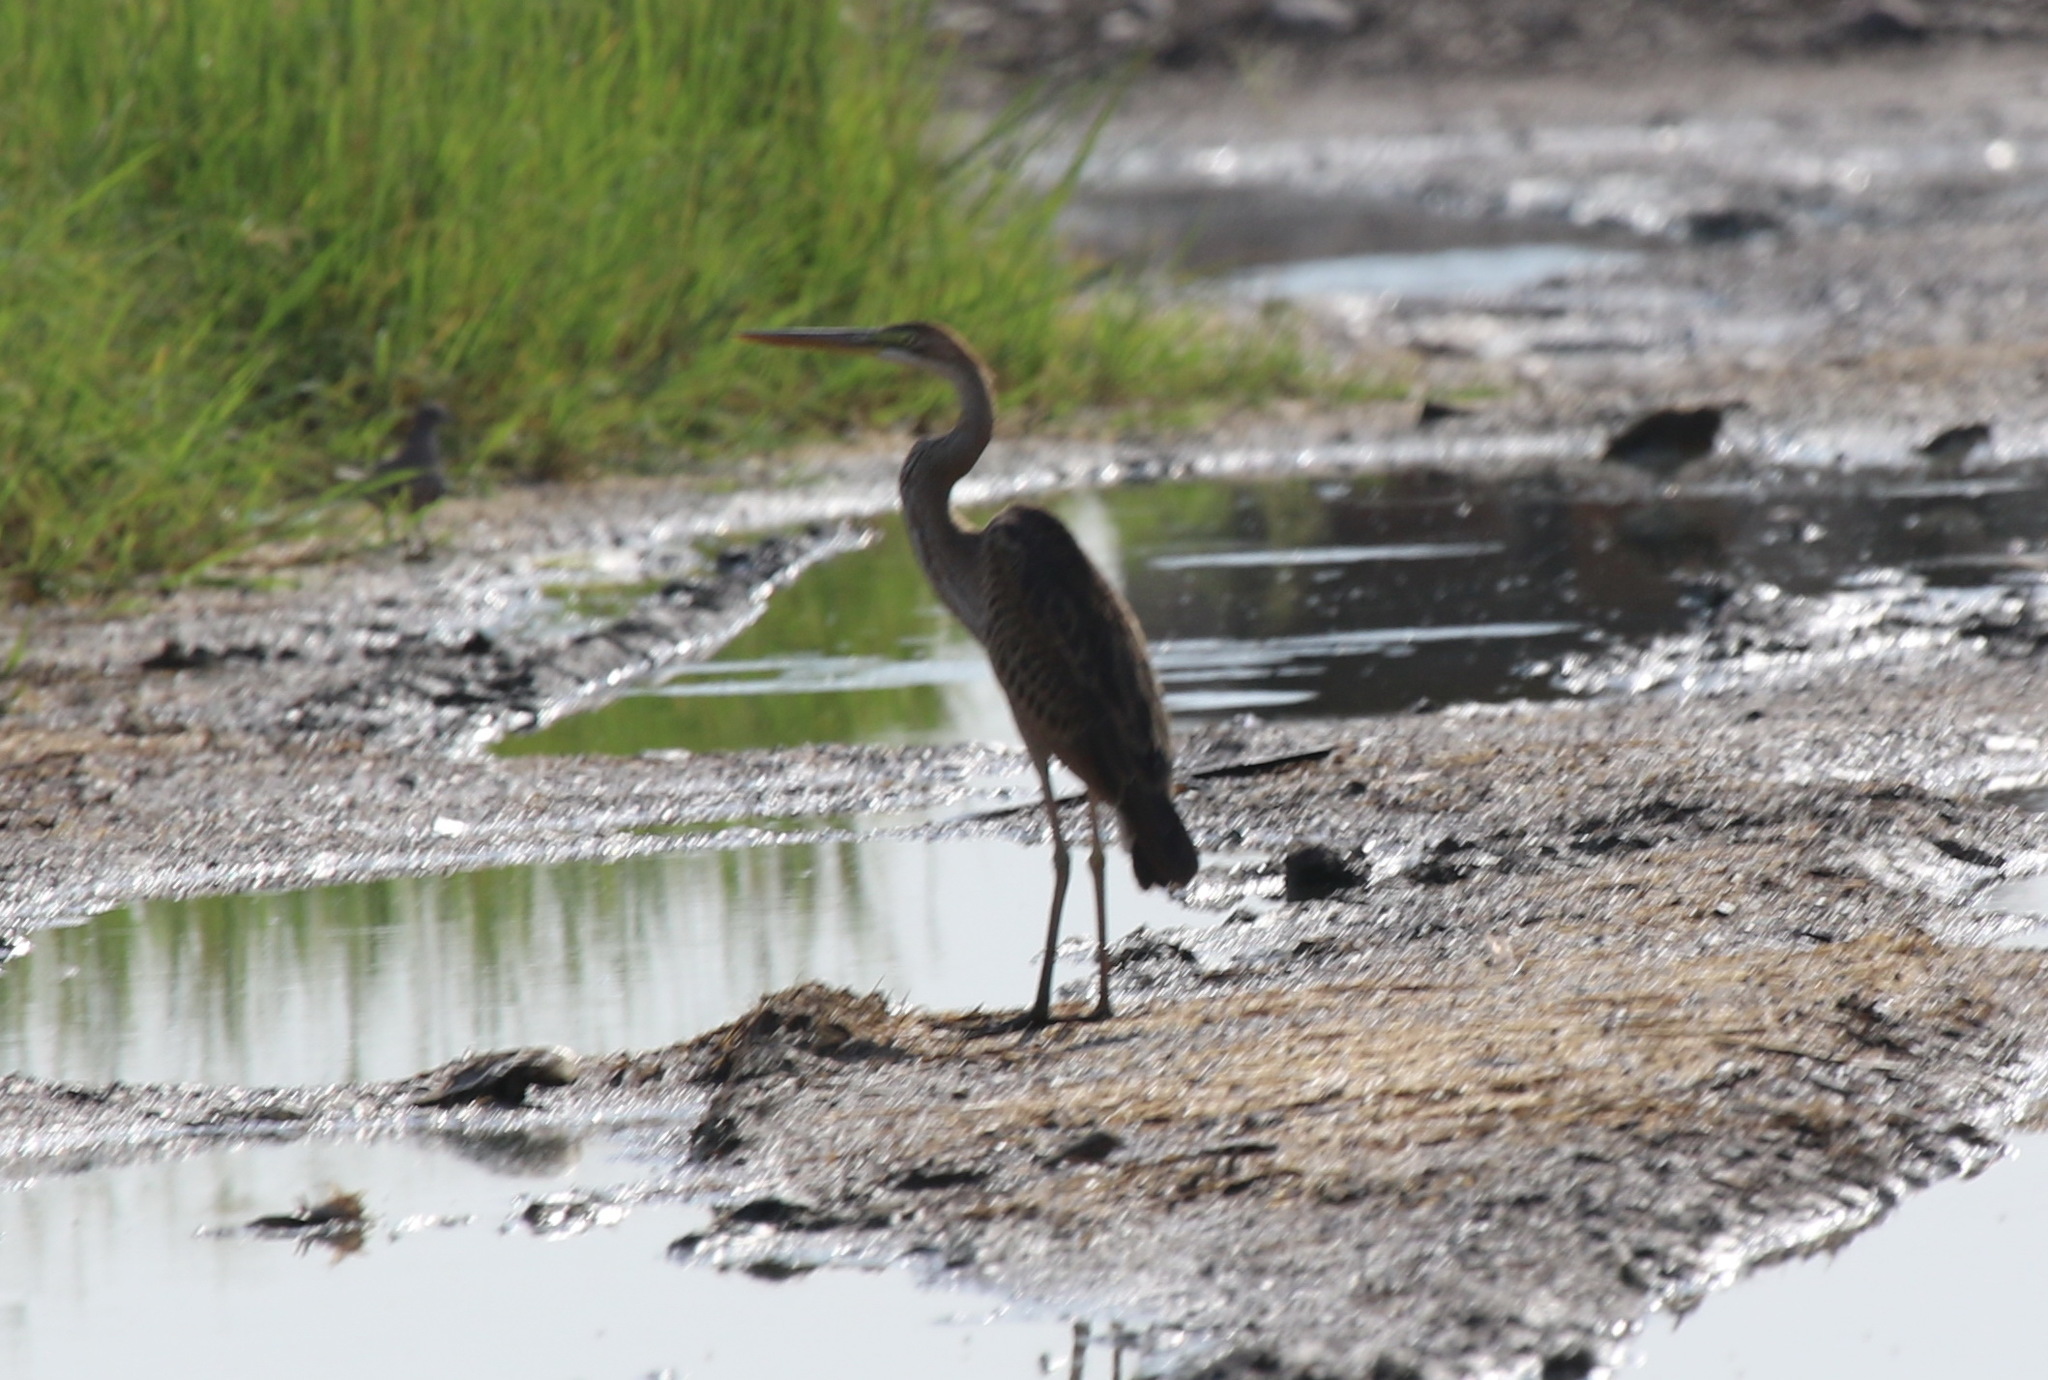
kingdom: Animalia
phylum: Chordata
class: Aves
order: Pelecaniformes
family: Ardeidae
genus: Ardea
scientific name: Ardea purpurea
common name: Purple heron
